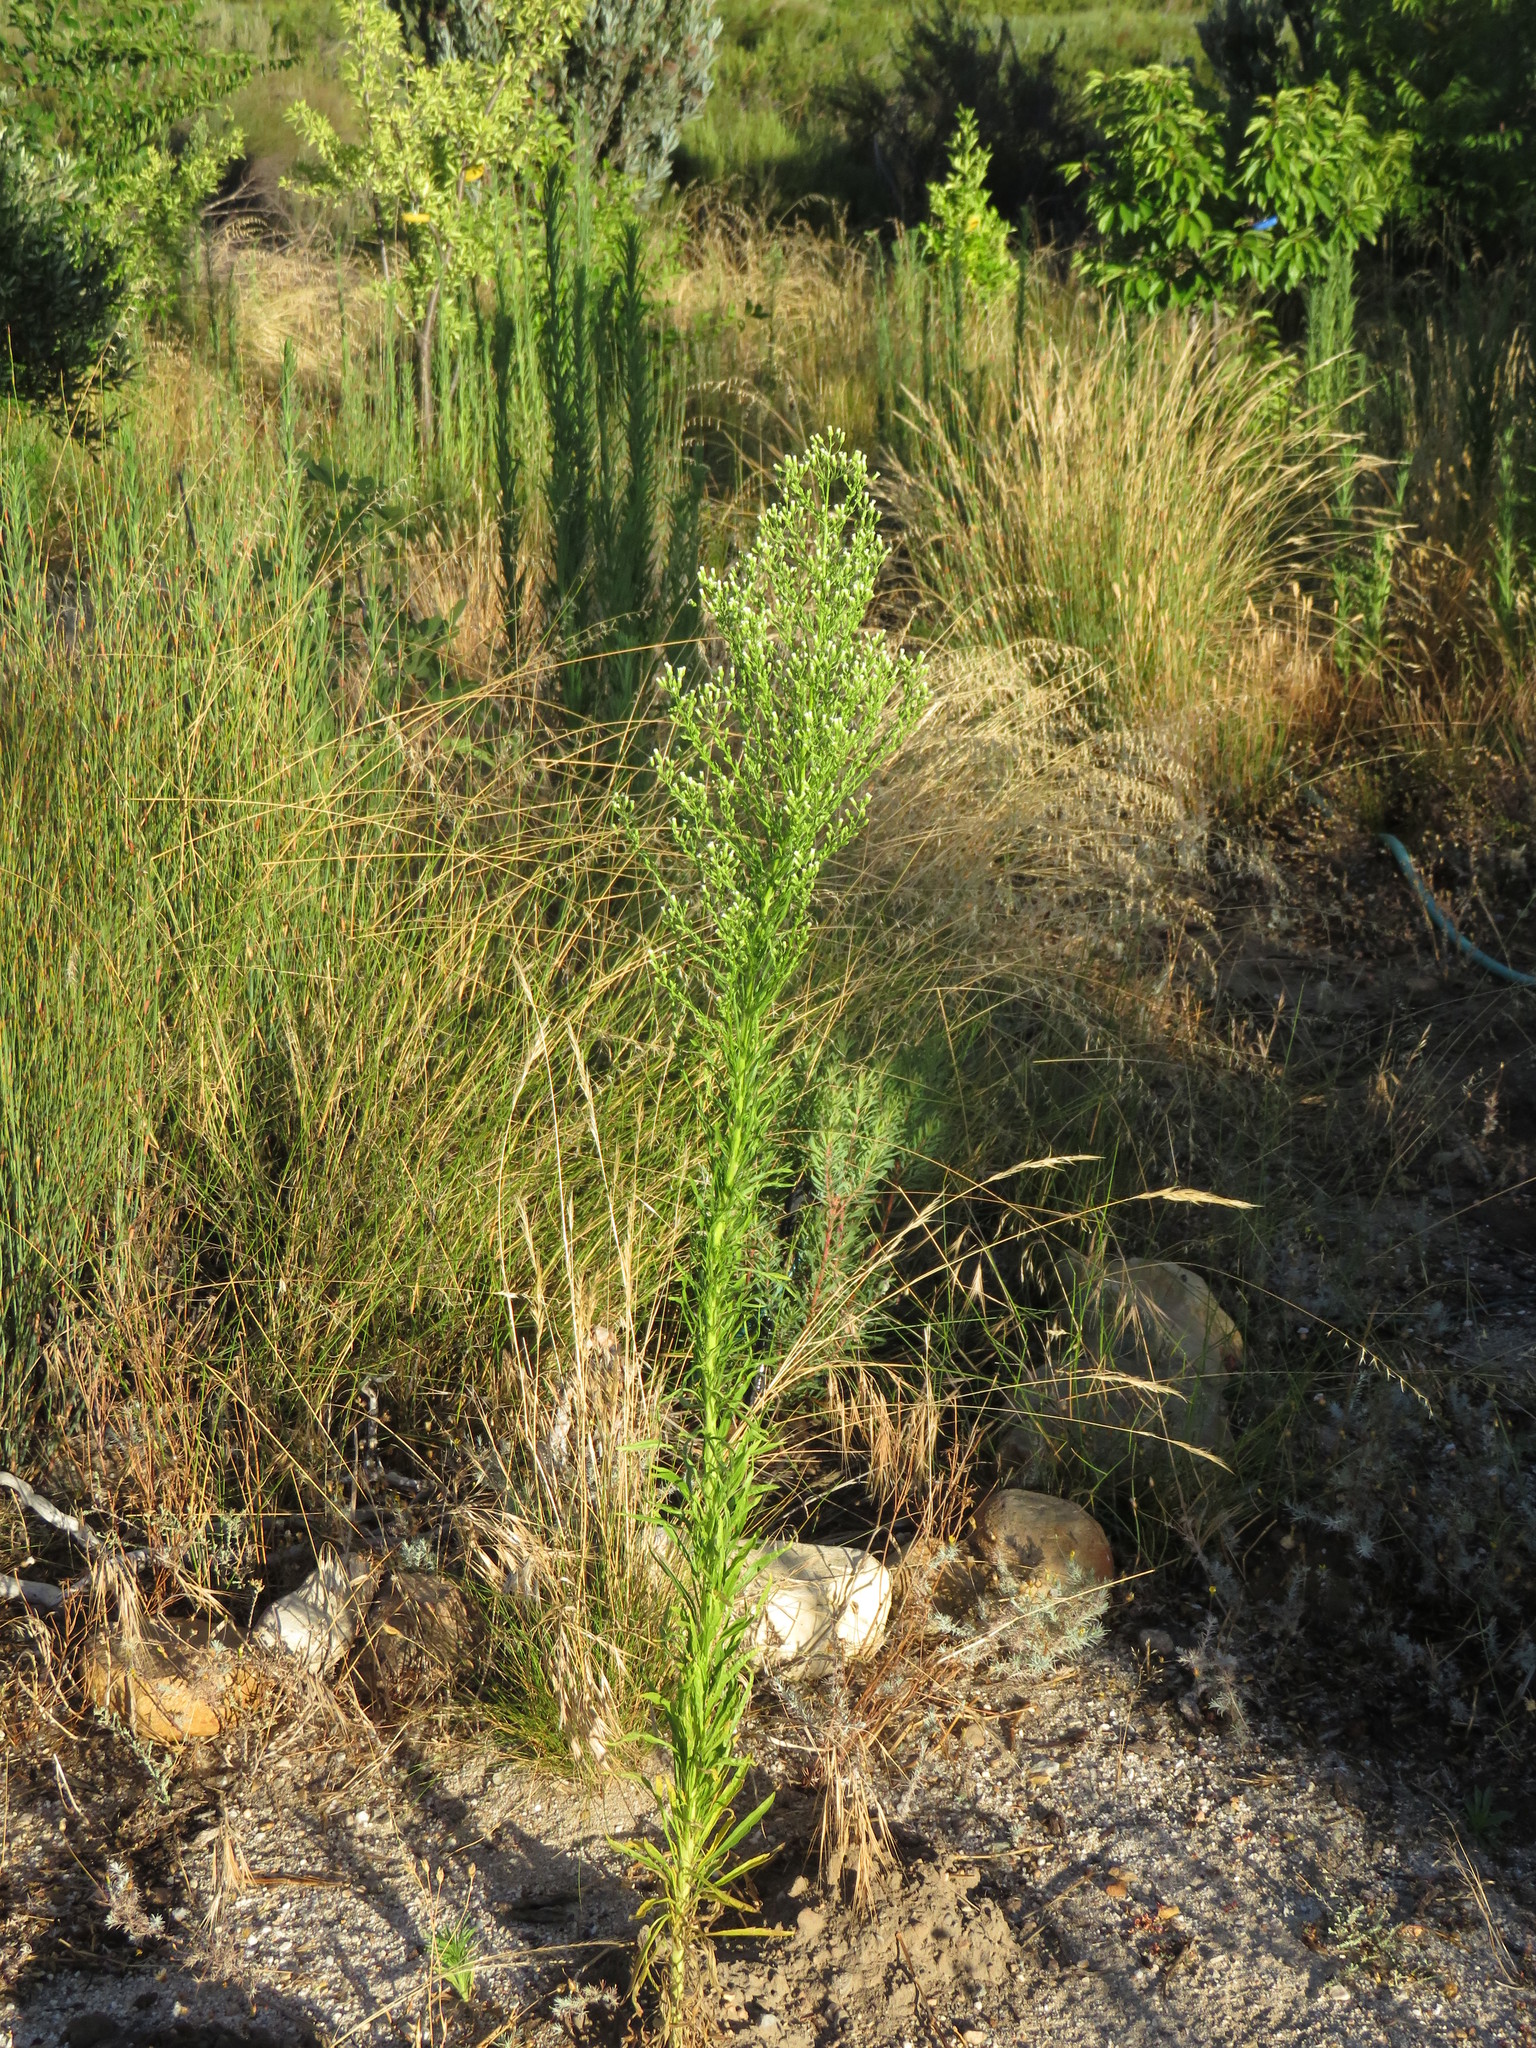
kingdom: Plantae
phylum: Tracheophyta
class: Magnoliopsida
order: Asterales
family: Asteraceae
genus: Erigeron
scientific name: Erigeron canadensis
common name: Canadian fleabane
